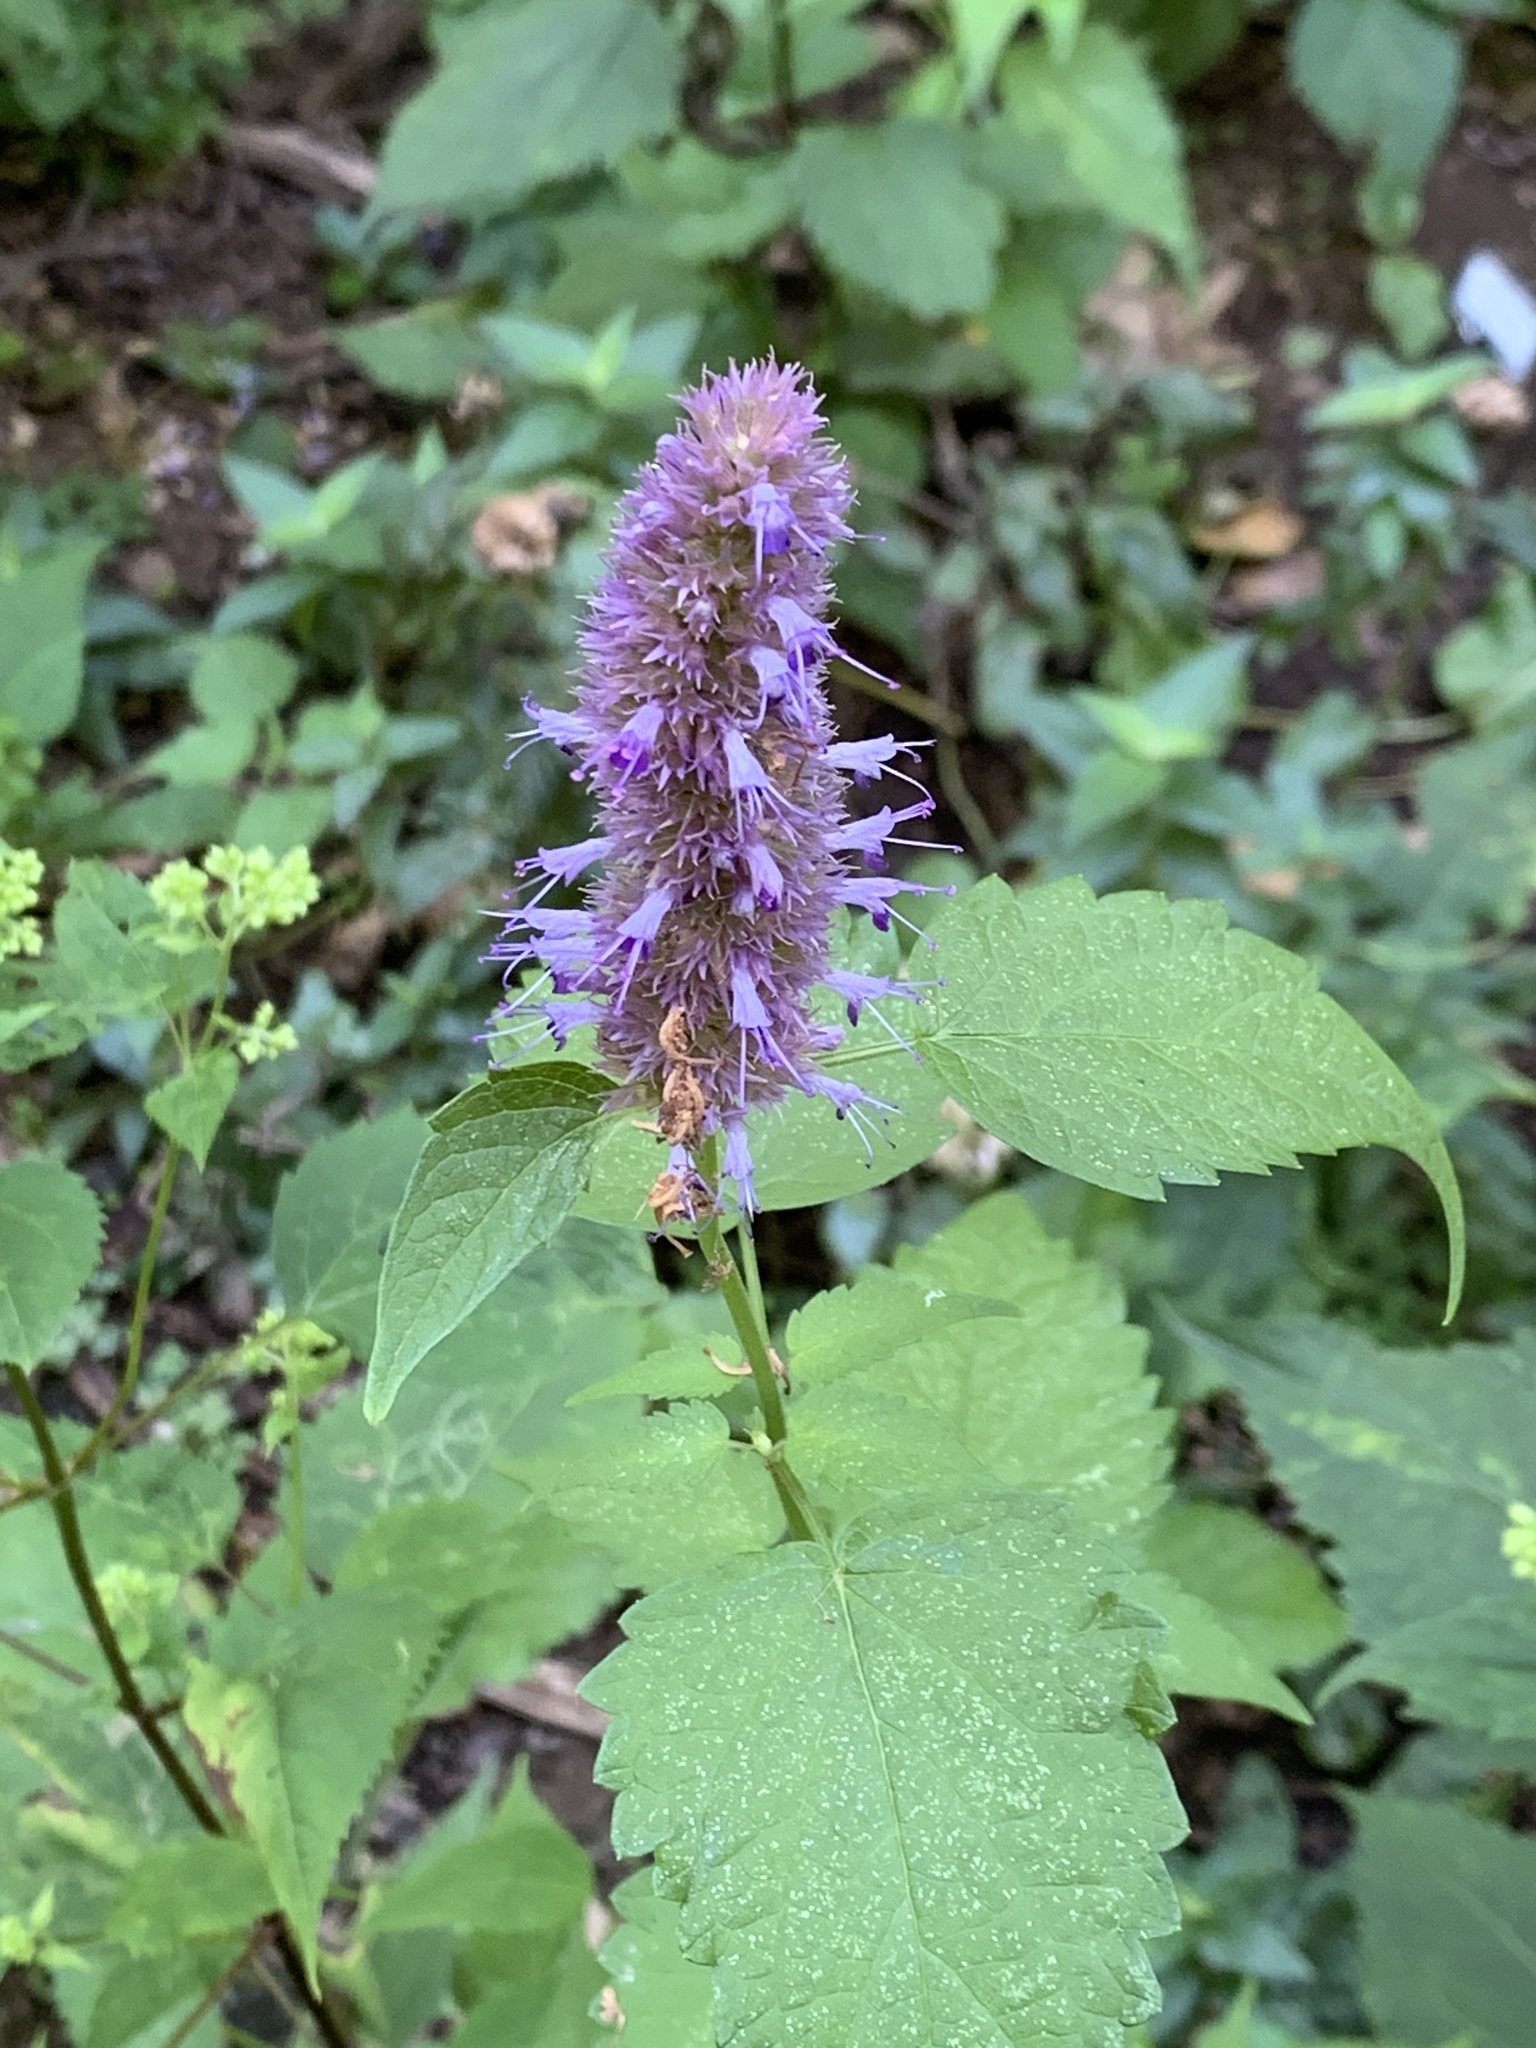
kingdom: Plantae
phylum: Tracheophyta
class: Magnoliopsida
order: Lamiales
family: Lamiaceae
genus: Agastache
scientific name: Agastache foeniculum
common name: Anise hyssop
